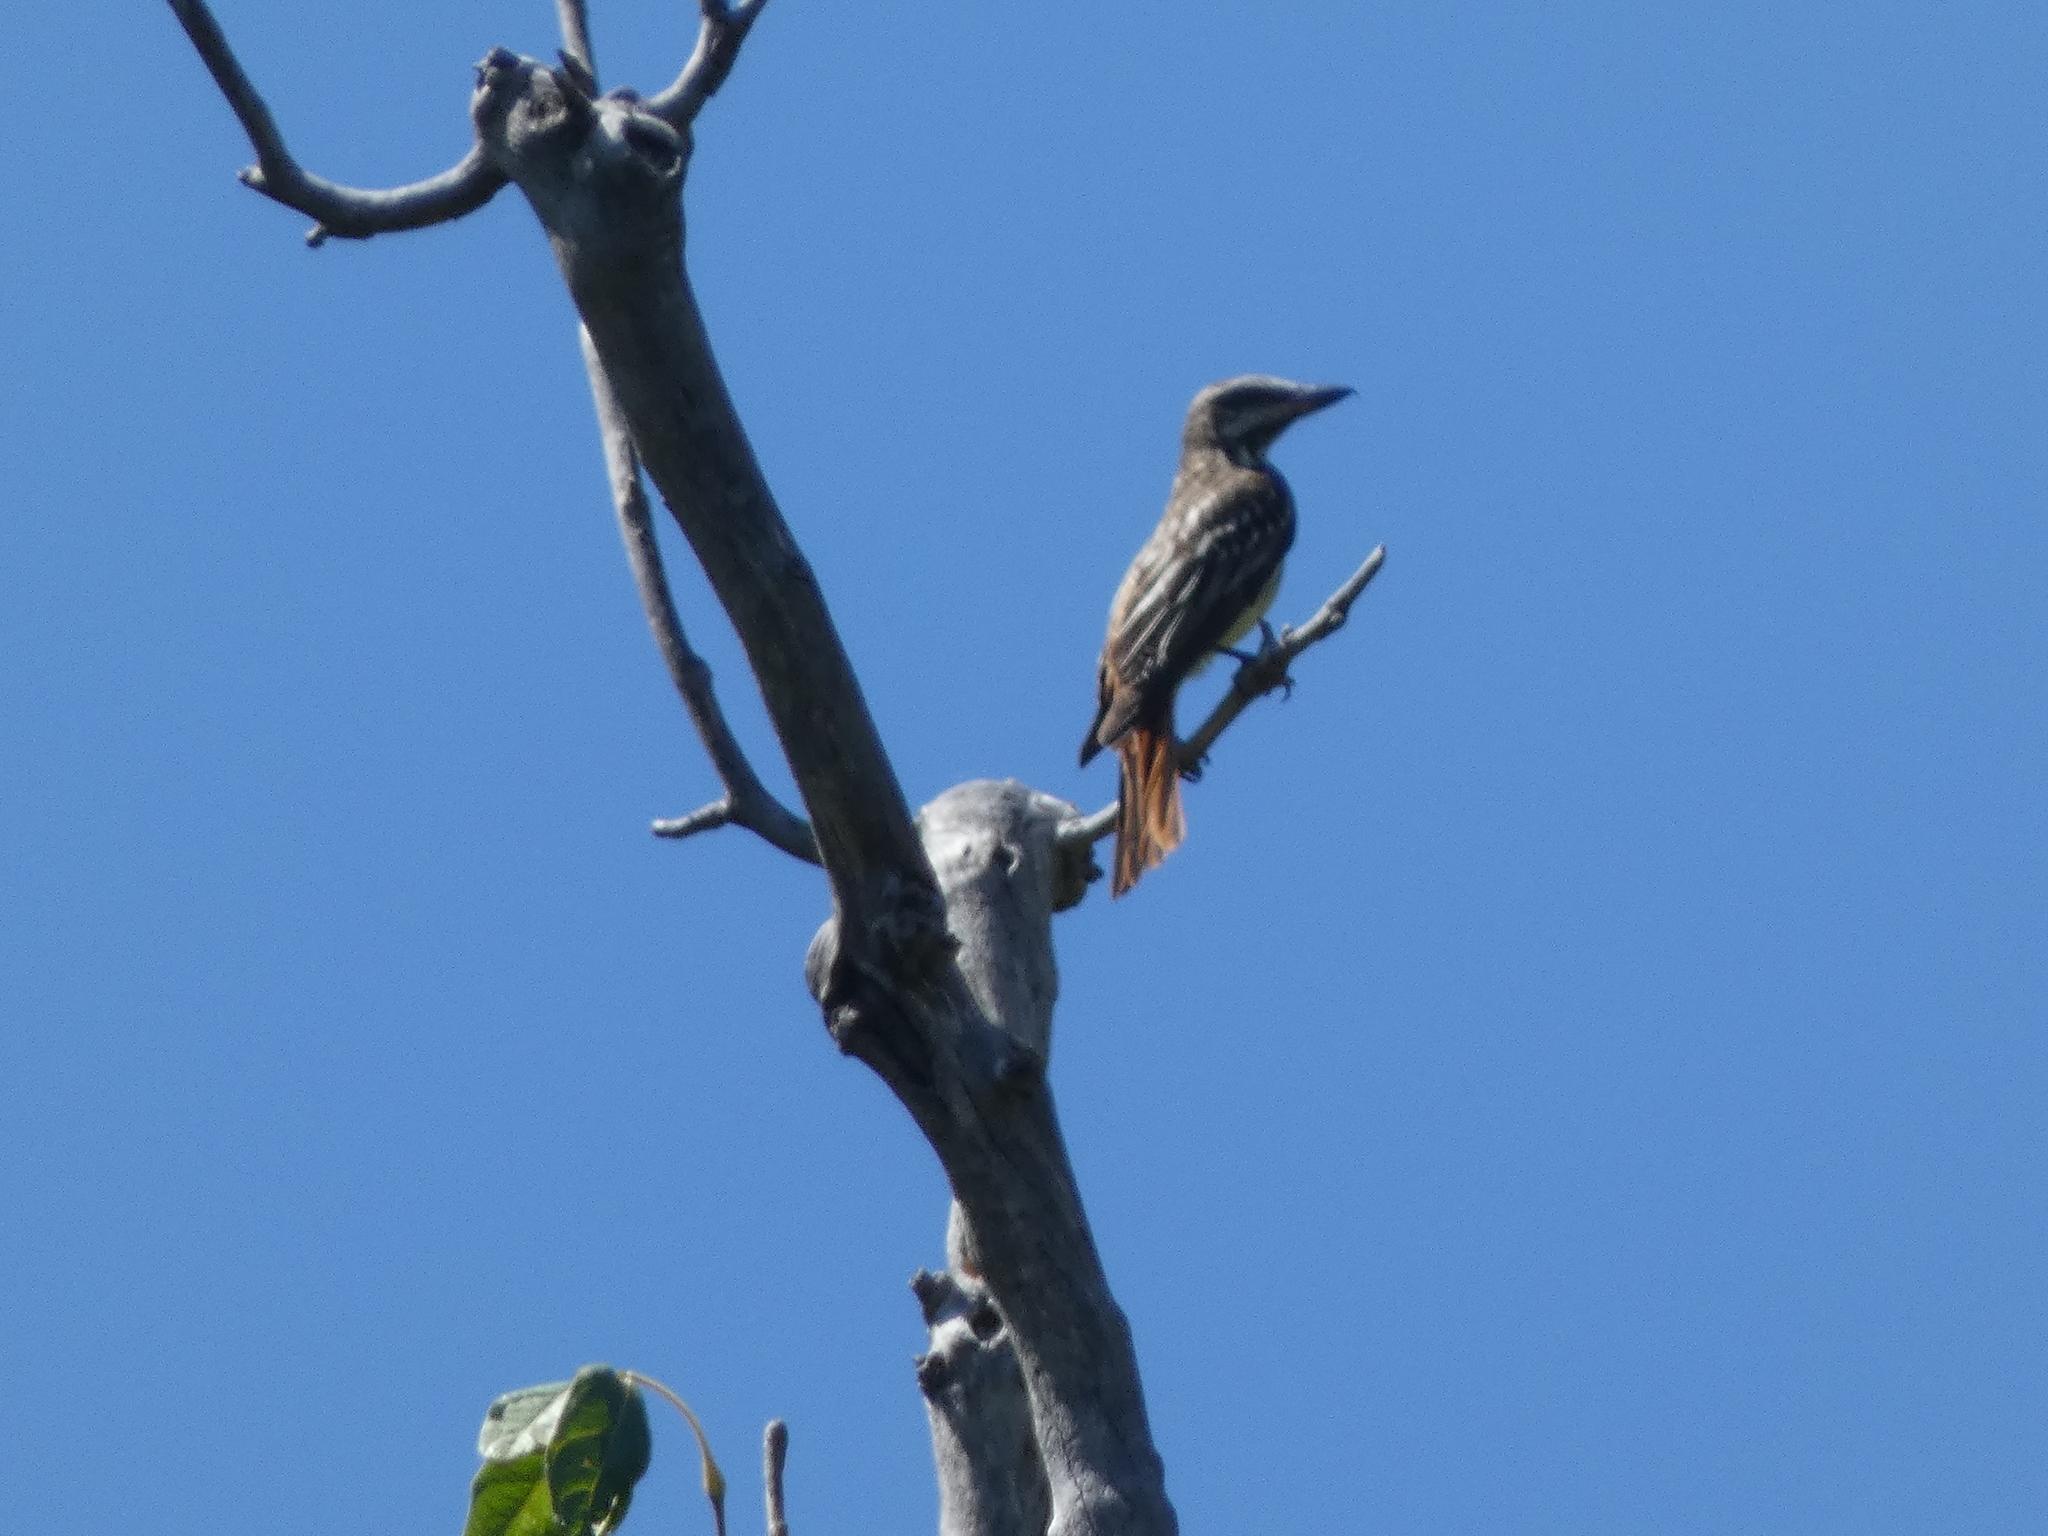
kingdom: Animalia
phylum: Chordata
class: Aves
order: Passeriformes
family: Tyrannidae
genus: Myiodynastes
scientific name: Myiodynastes luteiventris
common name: Sulphur-bellied flycatcher
